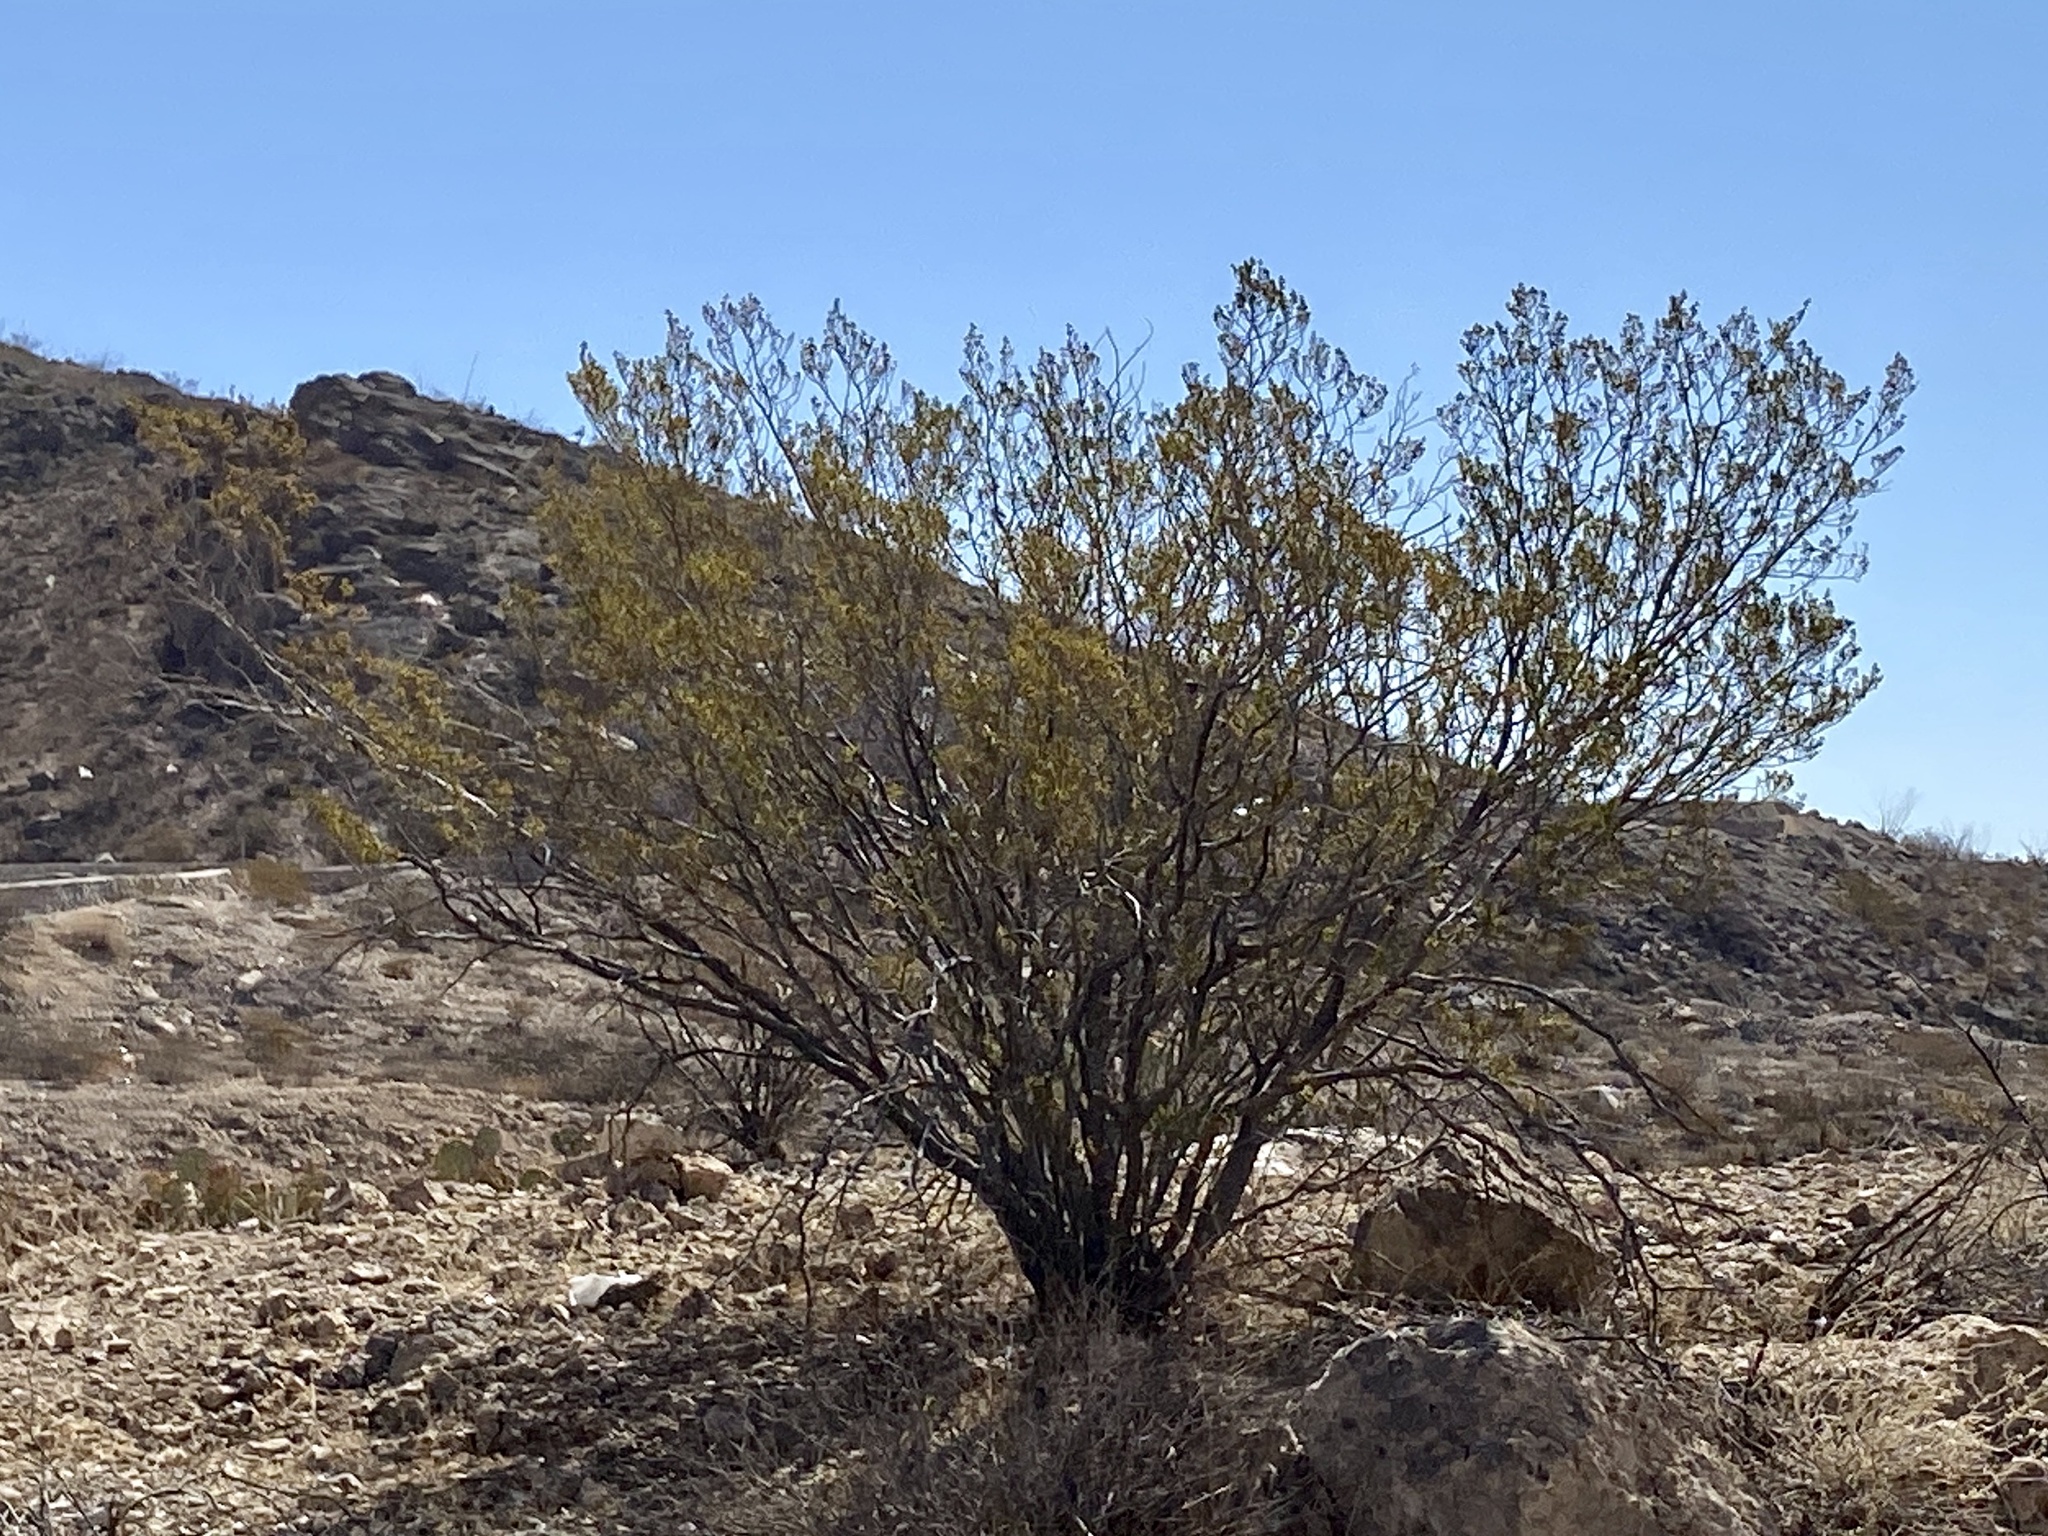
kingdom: Plantae
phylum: Tracheophyta
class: Magnoliopsida
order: Zygophyllales
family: Zygophyllaceae
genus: Larrea
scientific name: Larrea tridentata
